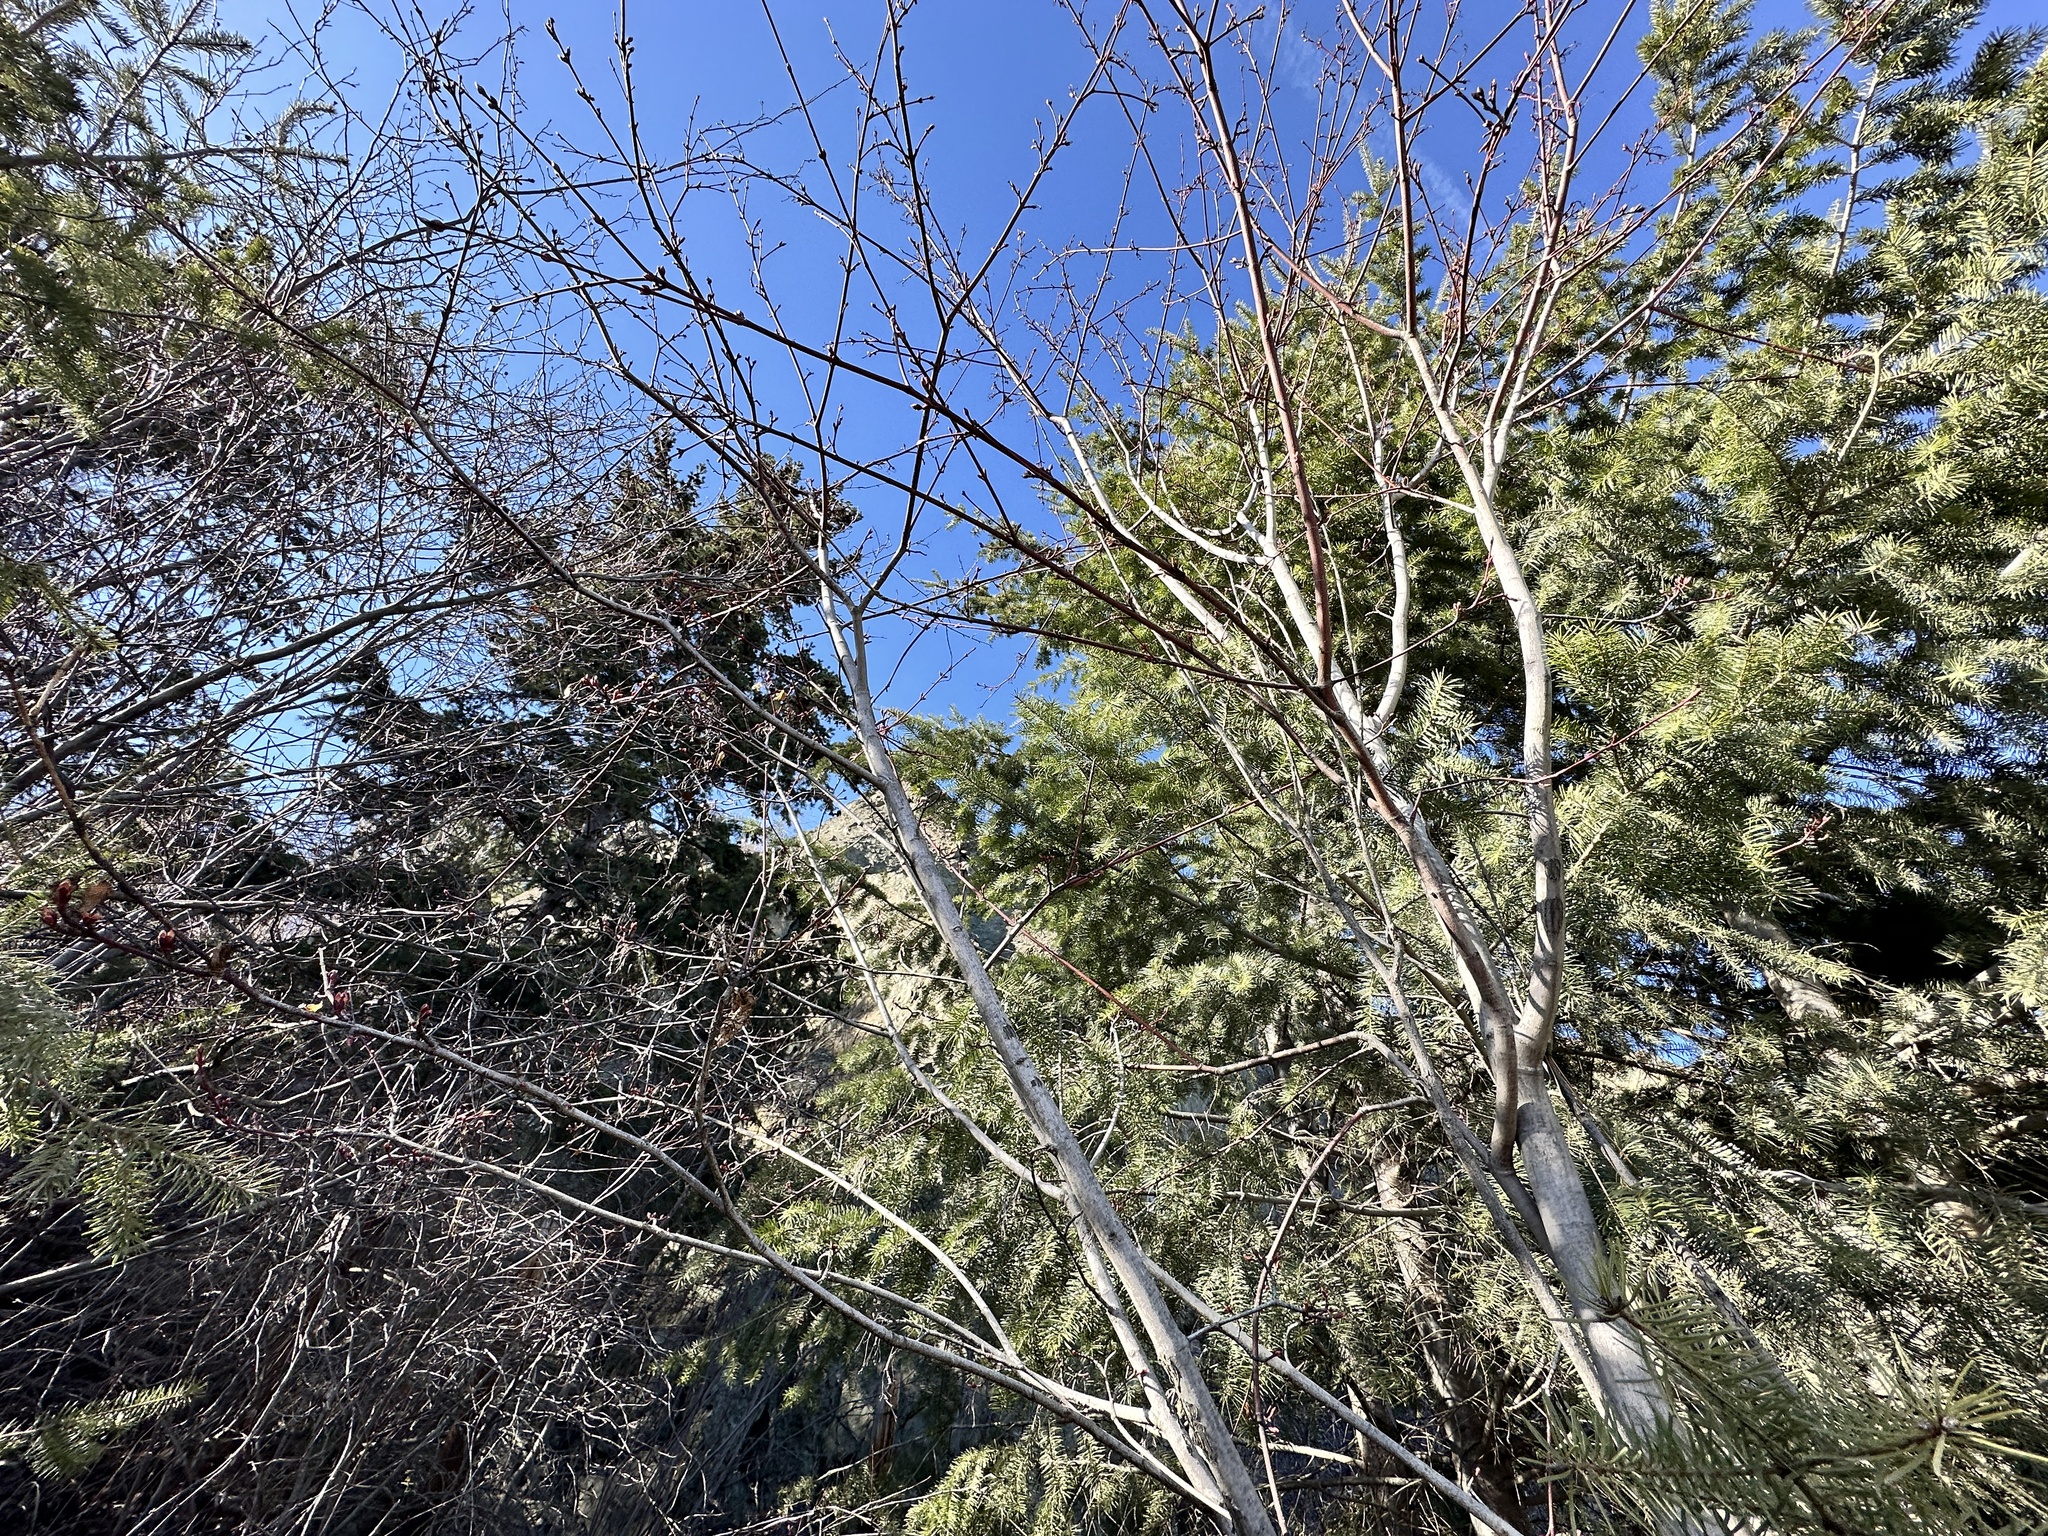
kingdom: Plantae
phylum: Tracheophyta
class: Magnoliopsida
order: Sapindales
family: Sapindaceae
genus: Acer
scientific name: Acer glabrum
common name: Rocky mountain maple
